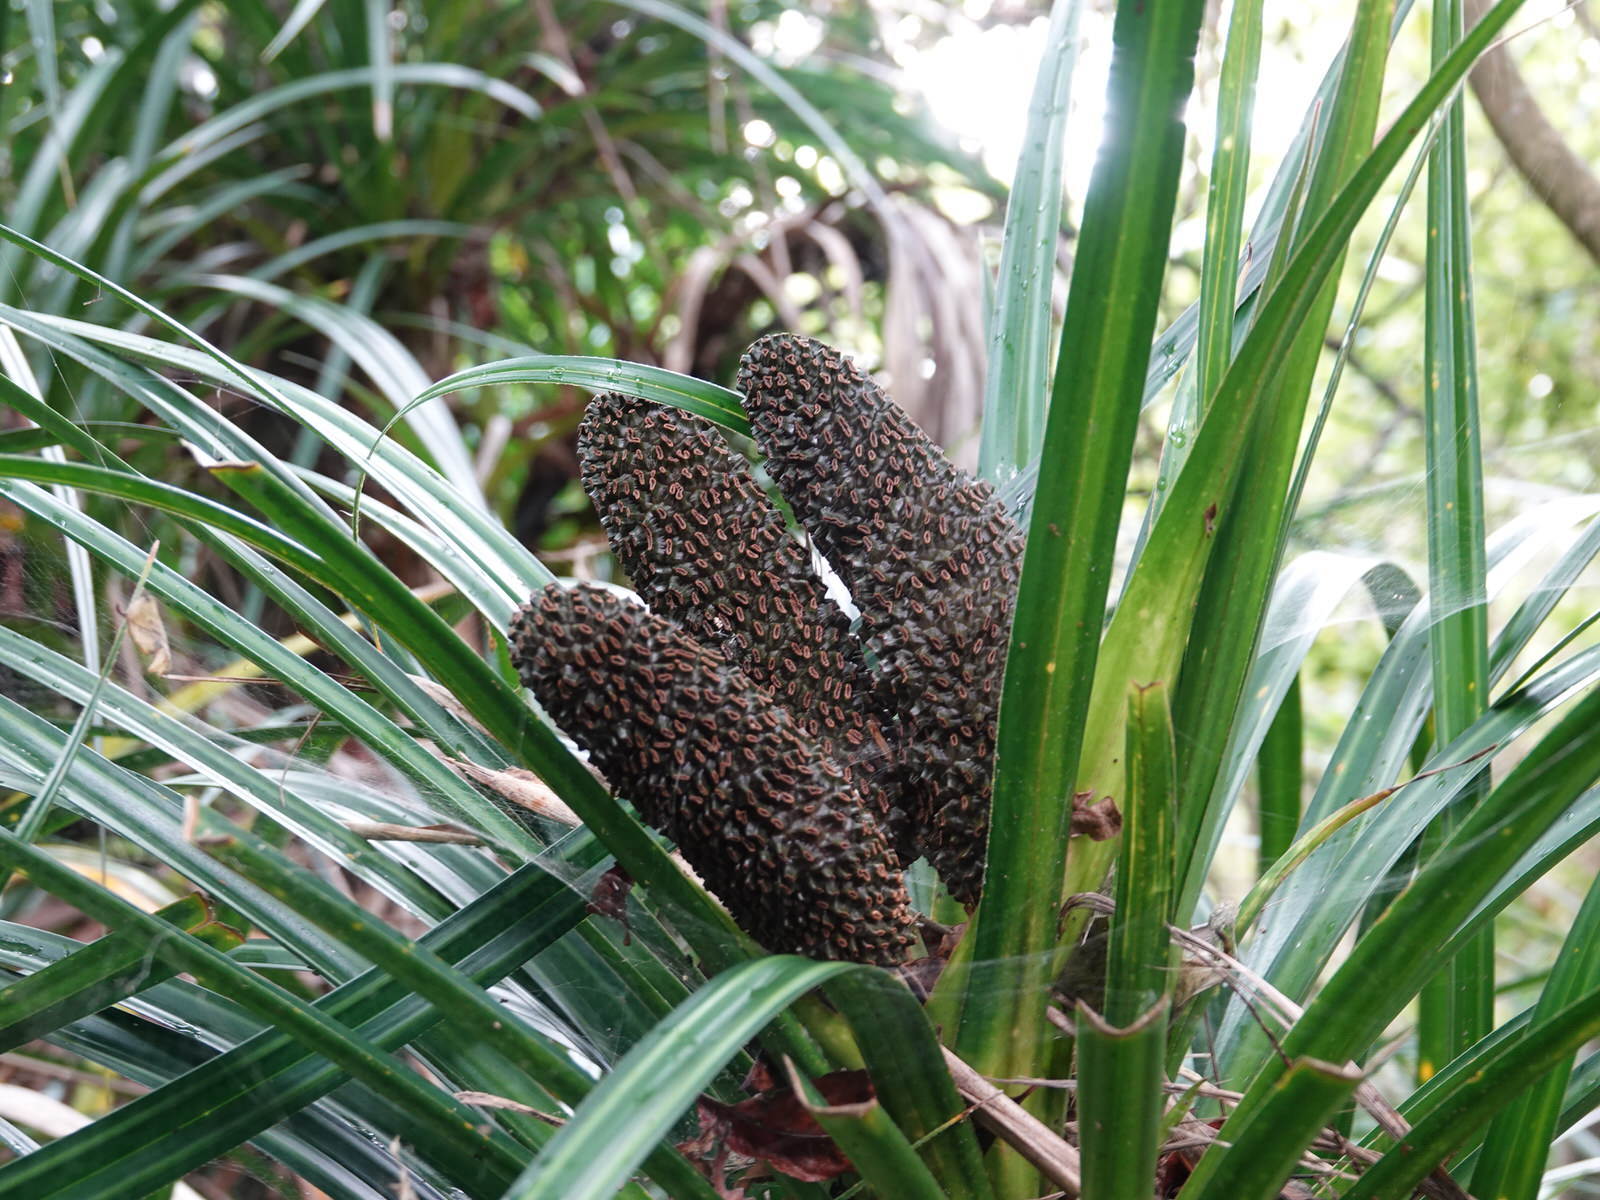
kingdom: Plantae
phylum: Tracheophyta
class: Liliopsida
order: Pandanales
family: Pandanaceae
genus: Freycinetia
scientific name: Freycinetia banksii
